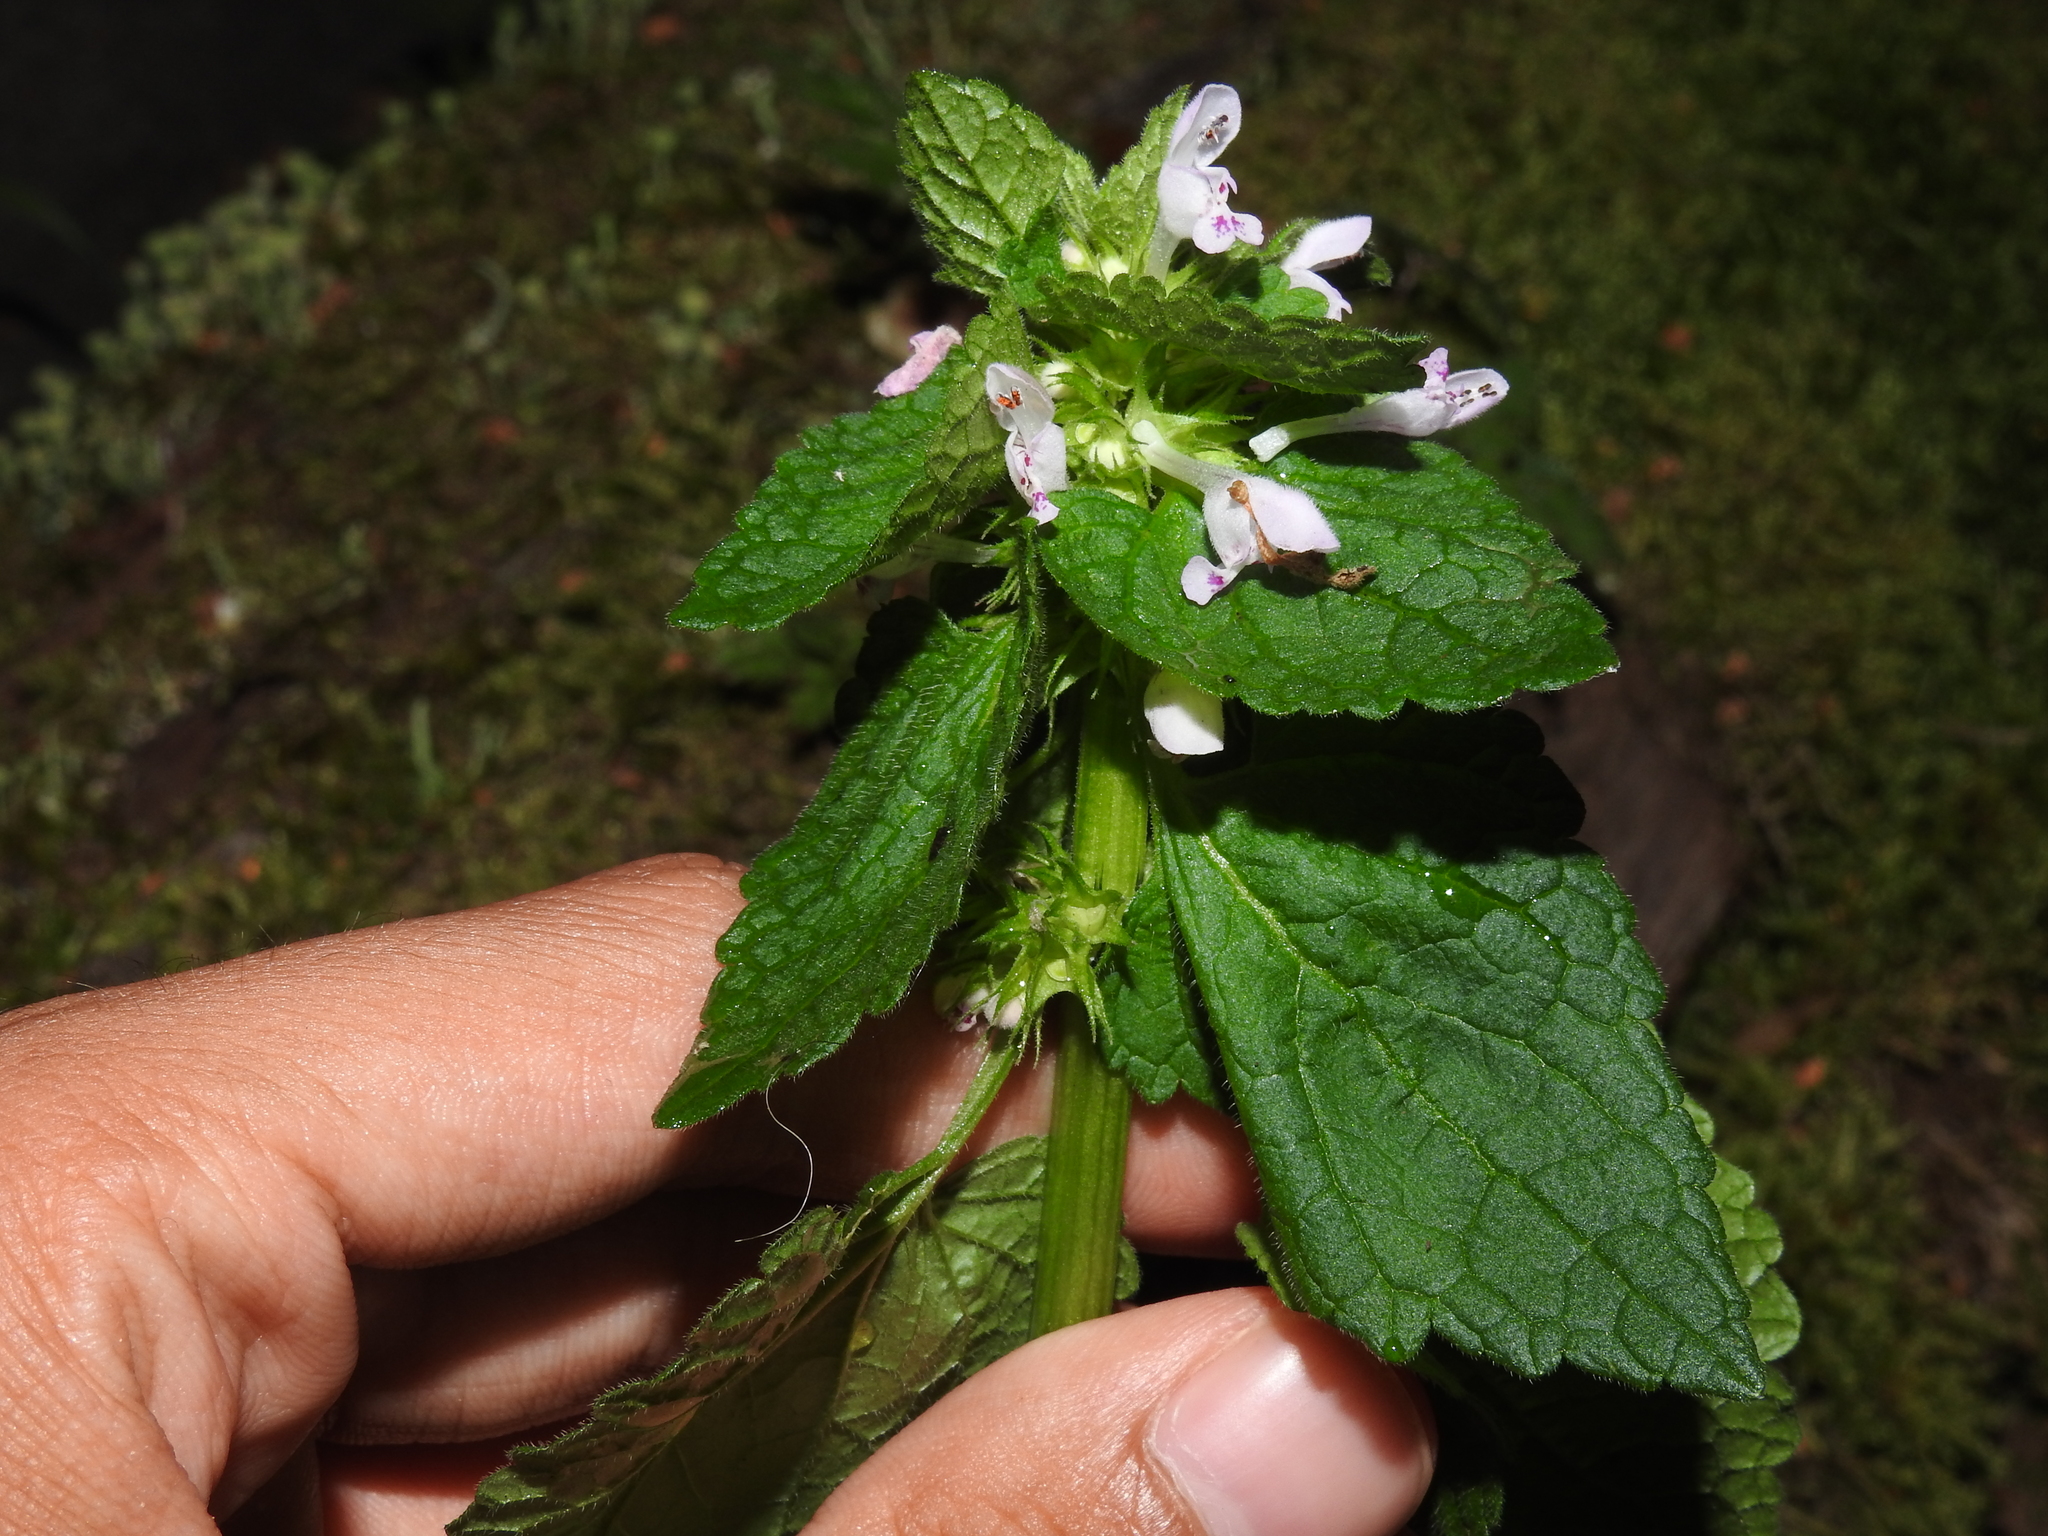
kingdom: Plantae
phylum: Tracheophyta
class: Magnoliopsida
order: Lamiales
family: Lamiaceae
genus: Lamium
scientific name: Lamium purpureum
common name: Red dead-nettle
